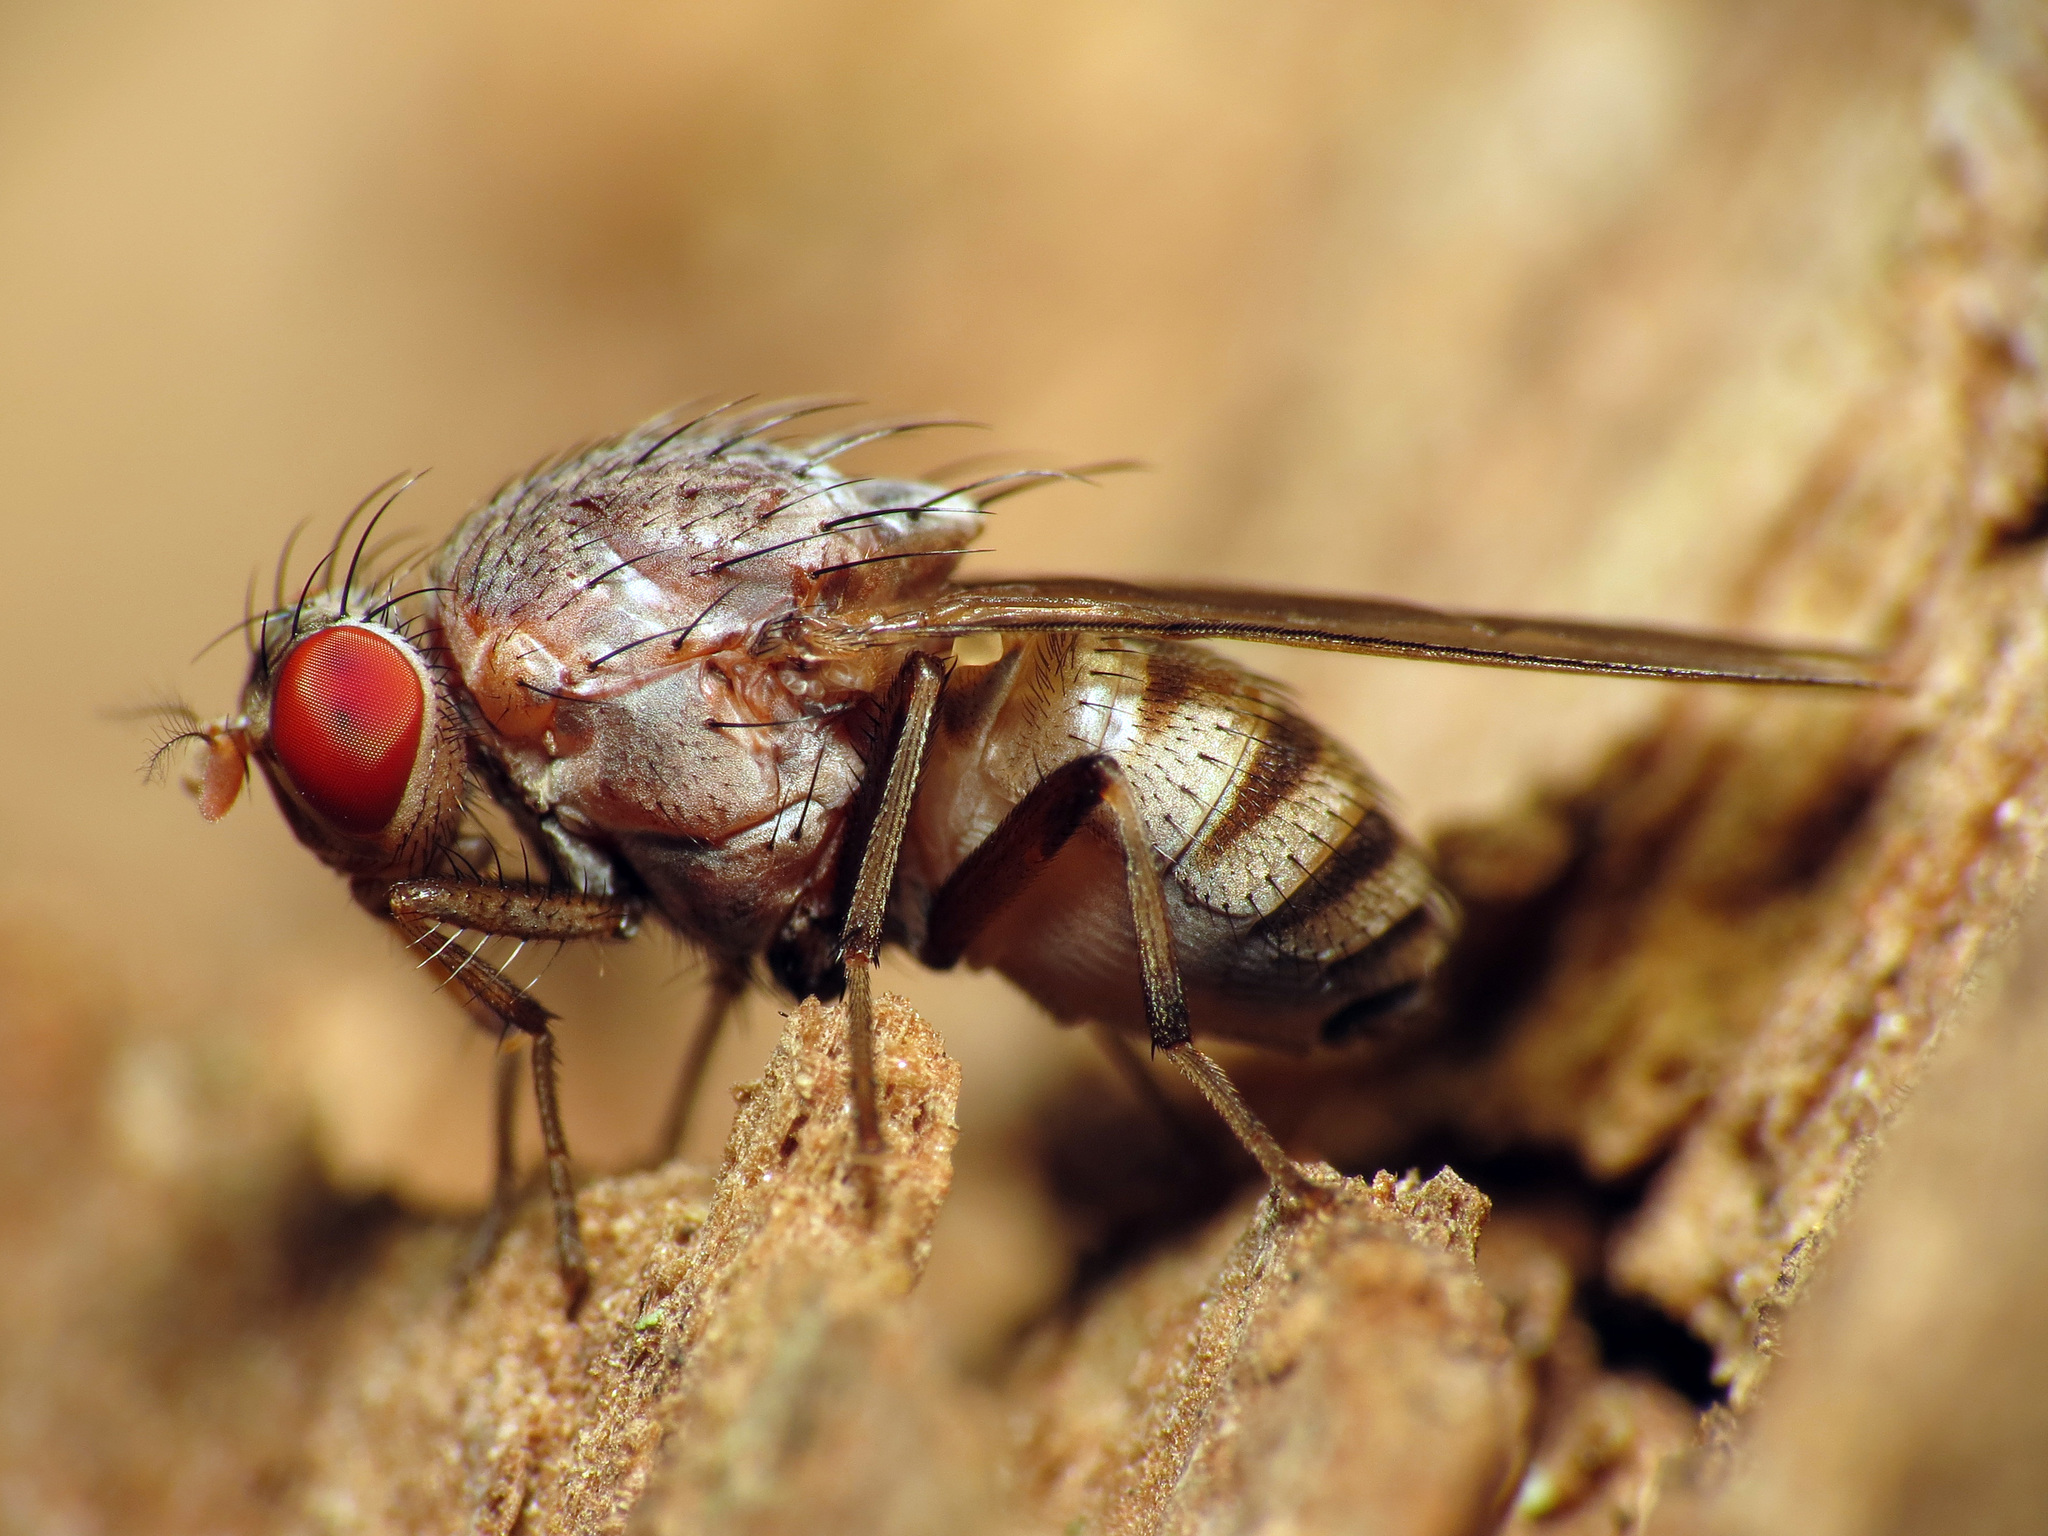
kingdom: Animalia
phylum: Arthropoda
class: Insecta
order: Diptera
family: Lauxaniidae
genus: Minettia
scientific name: Minettia magna
